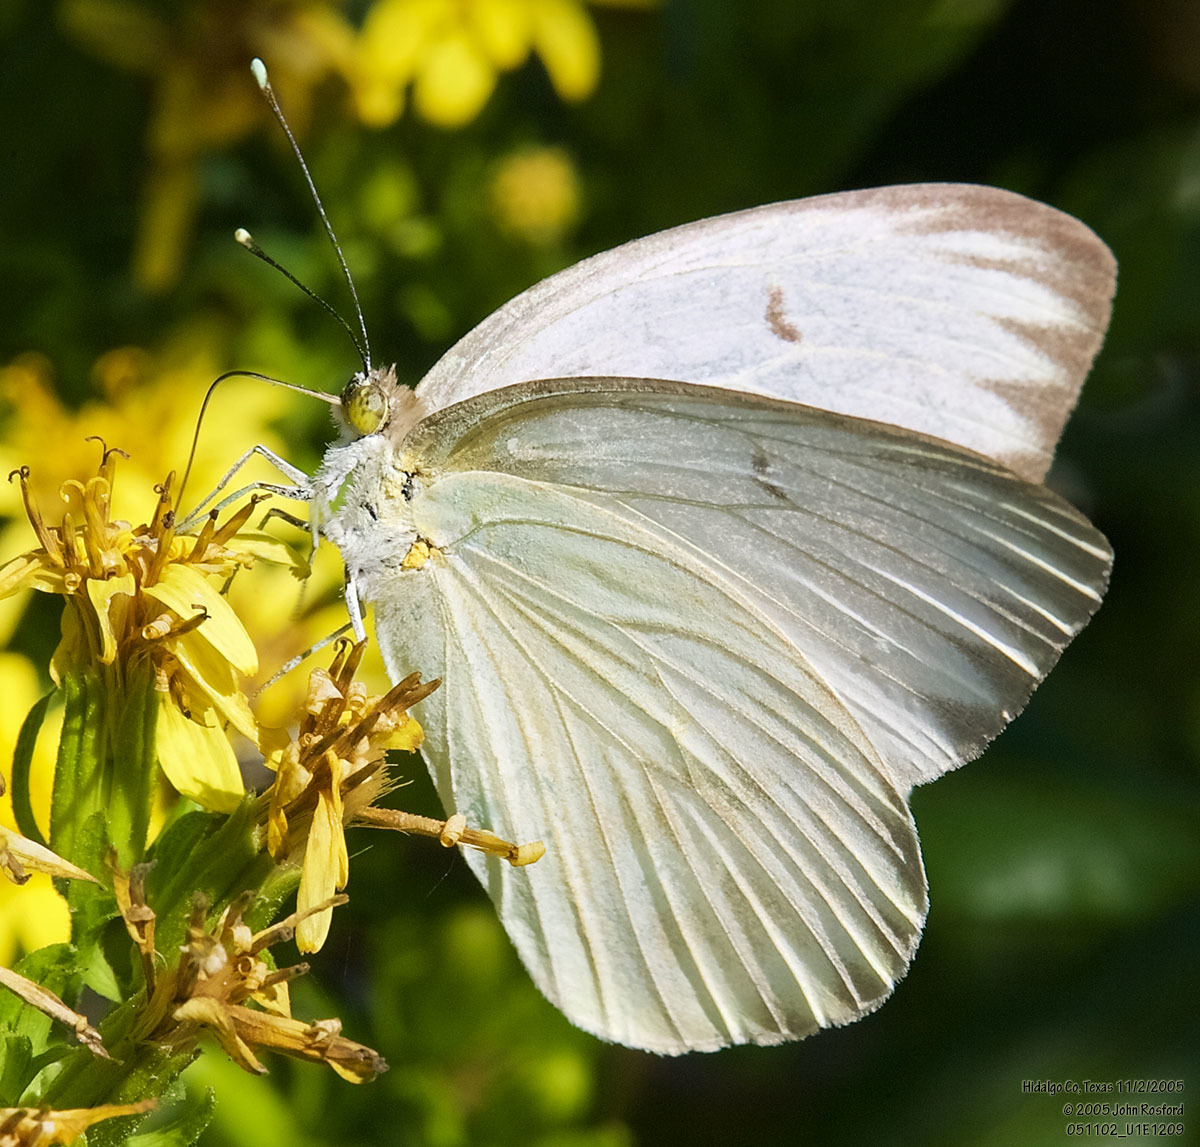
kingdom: Animalia
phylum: Arthropoda
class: Insecta
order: Lepidoptera
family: Pieridae
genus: Ascia
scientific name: Ascia monuste
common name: Great southern white
